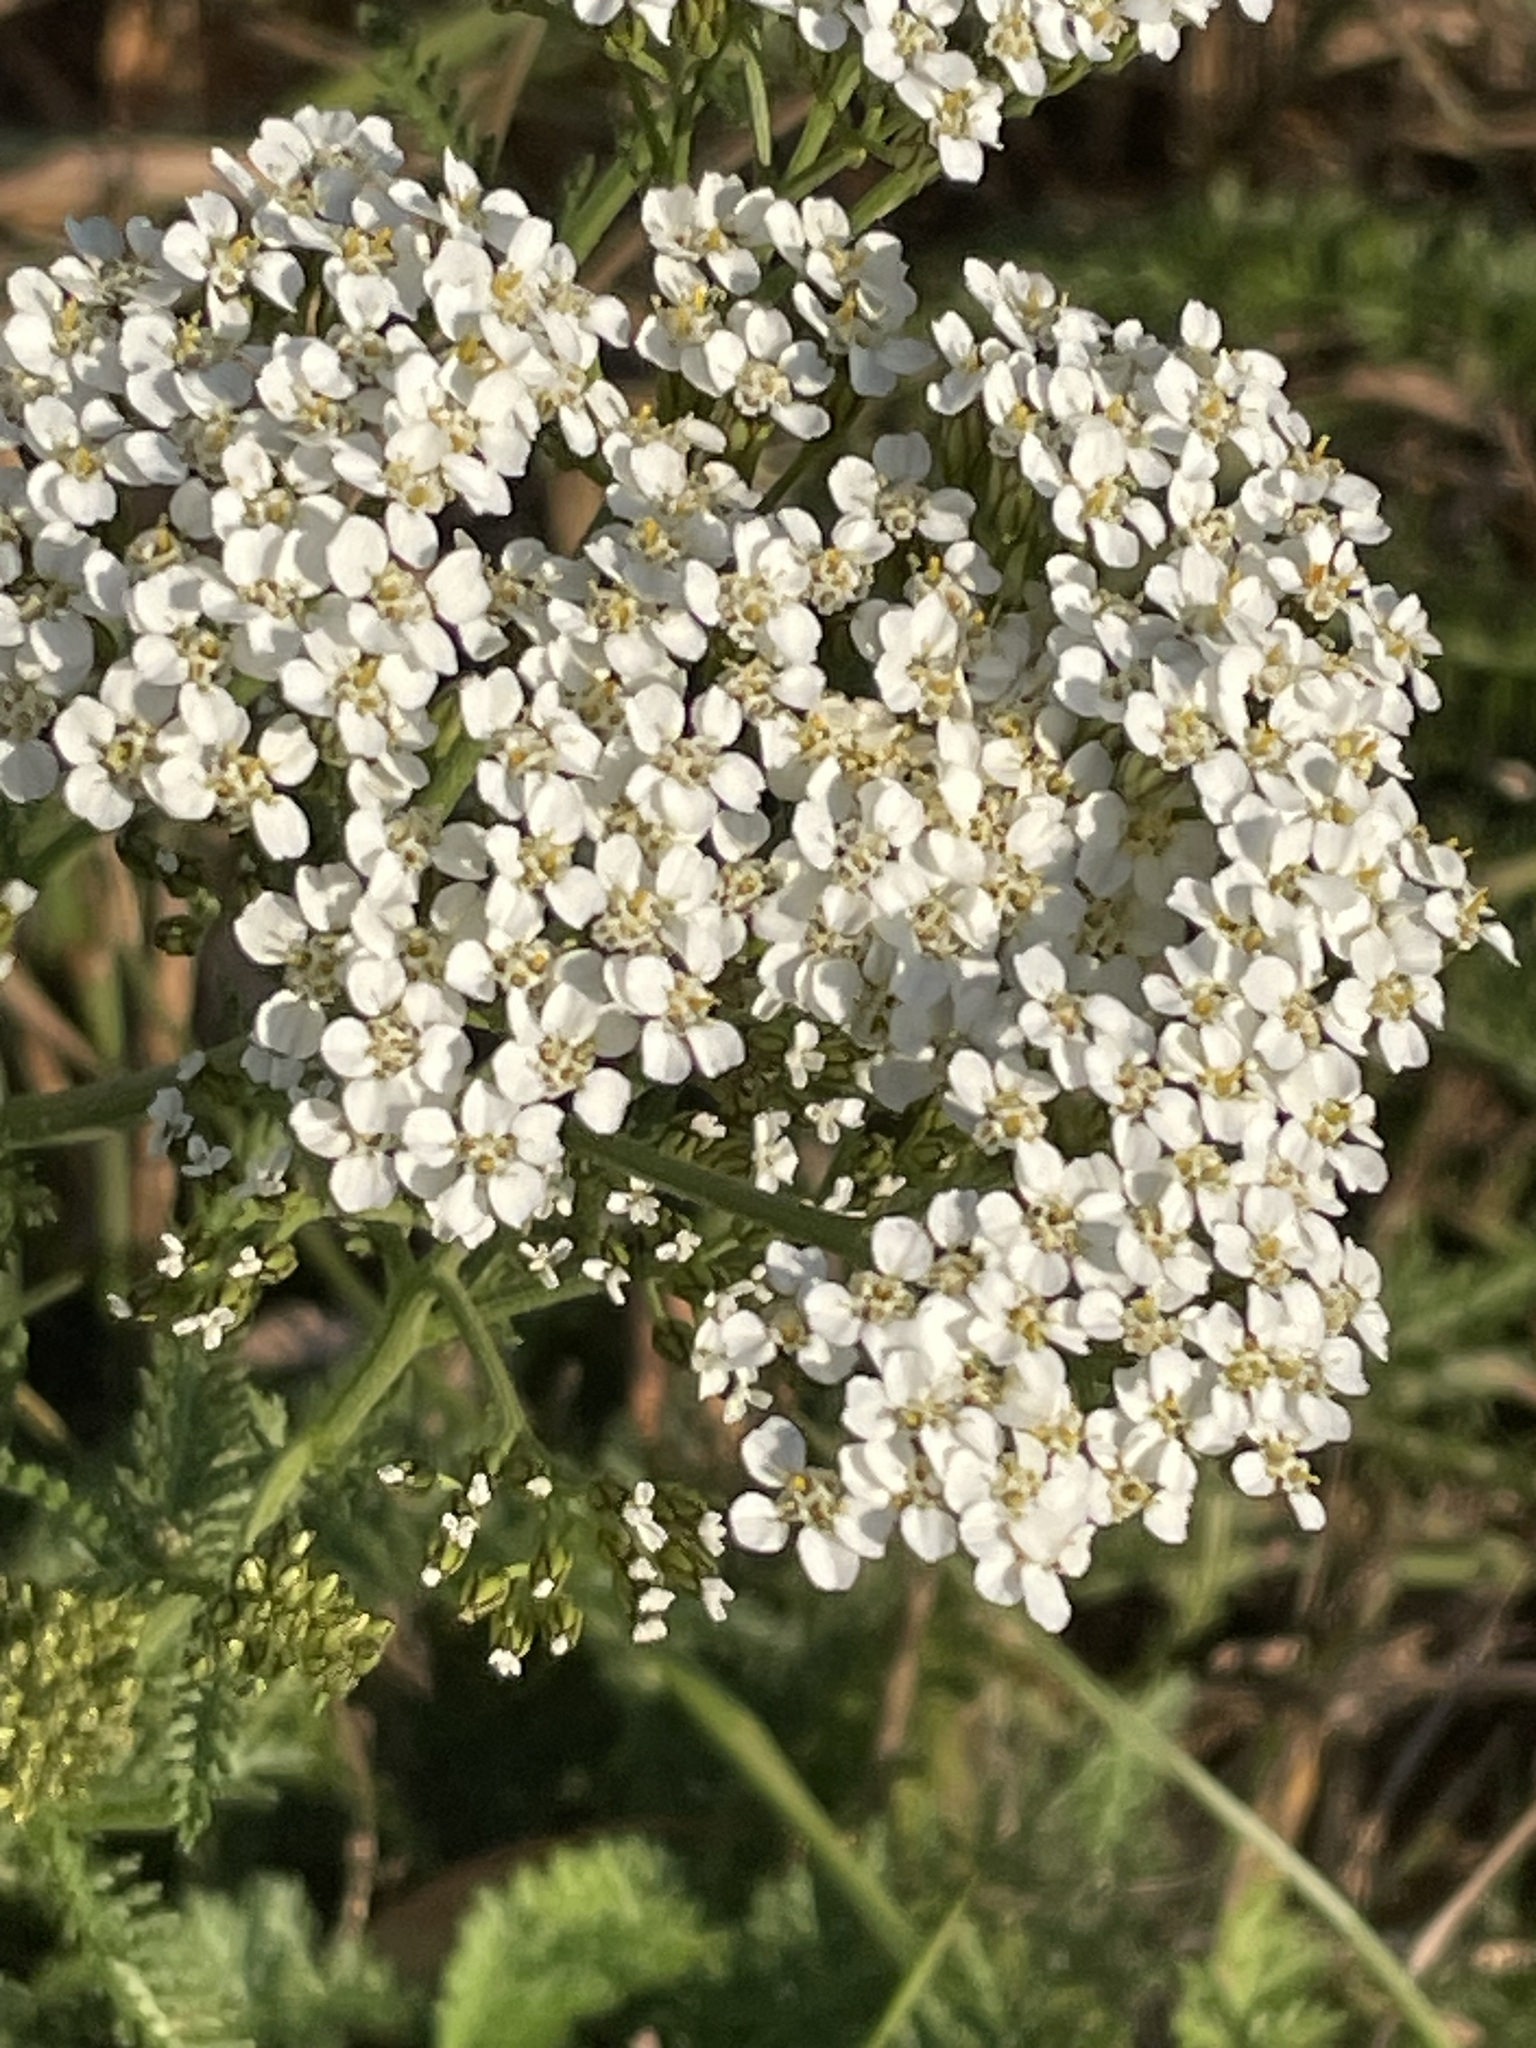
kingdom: Plantae
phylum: Tracheophyta
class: Magnoliopsida
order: Asterales
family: Asteraceae
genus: Achillea
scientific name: Achillea millefolium
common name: Yarrow
